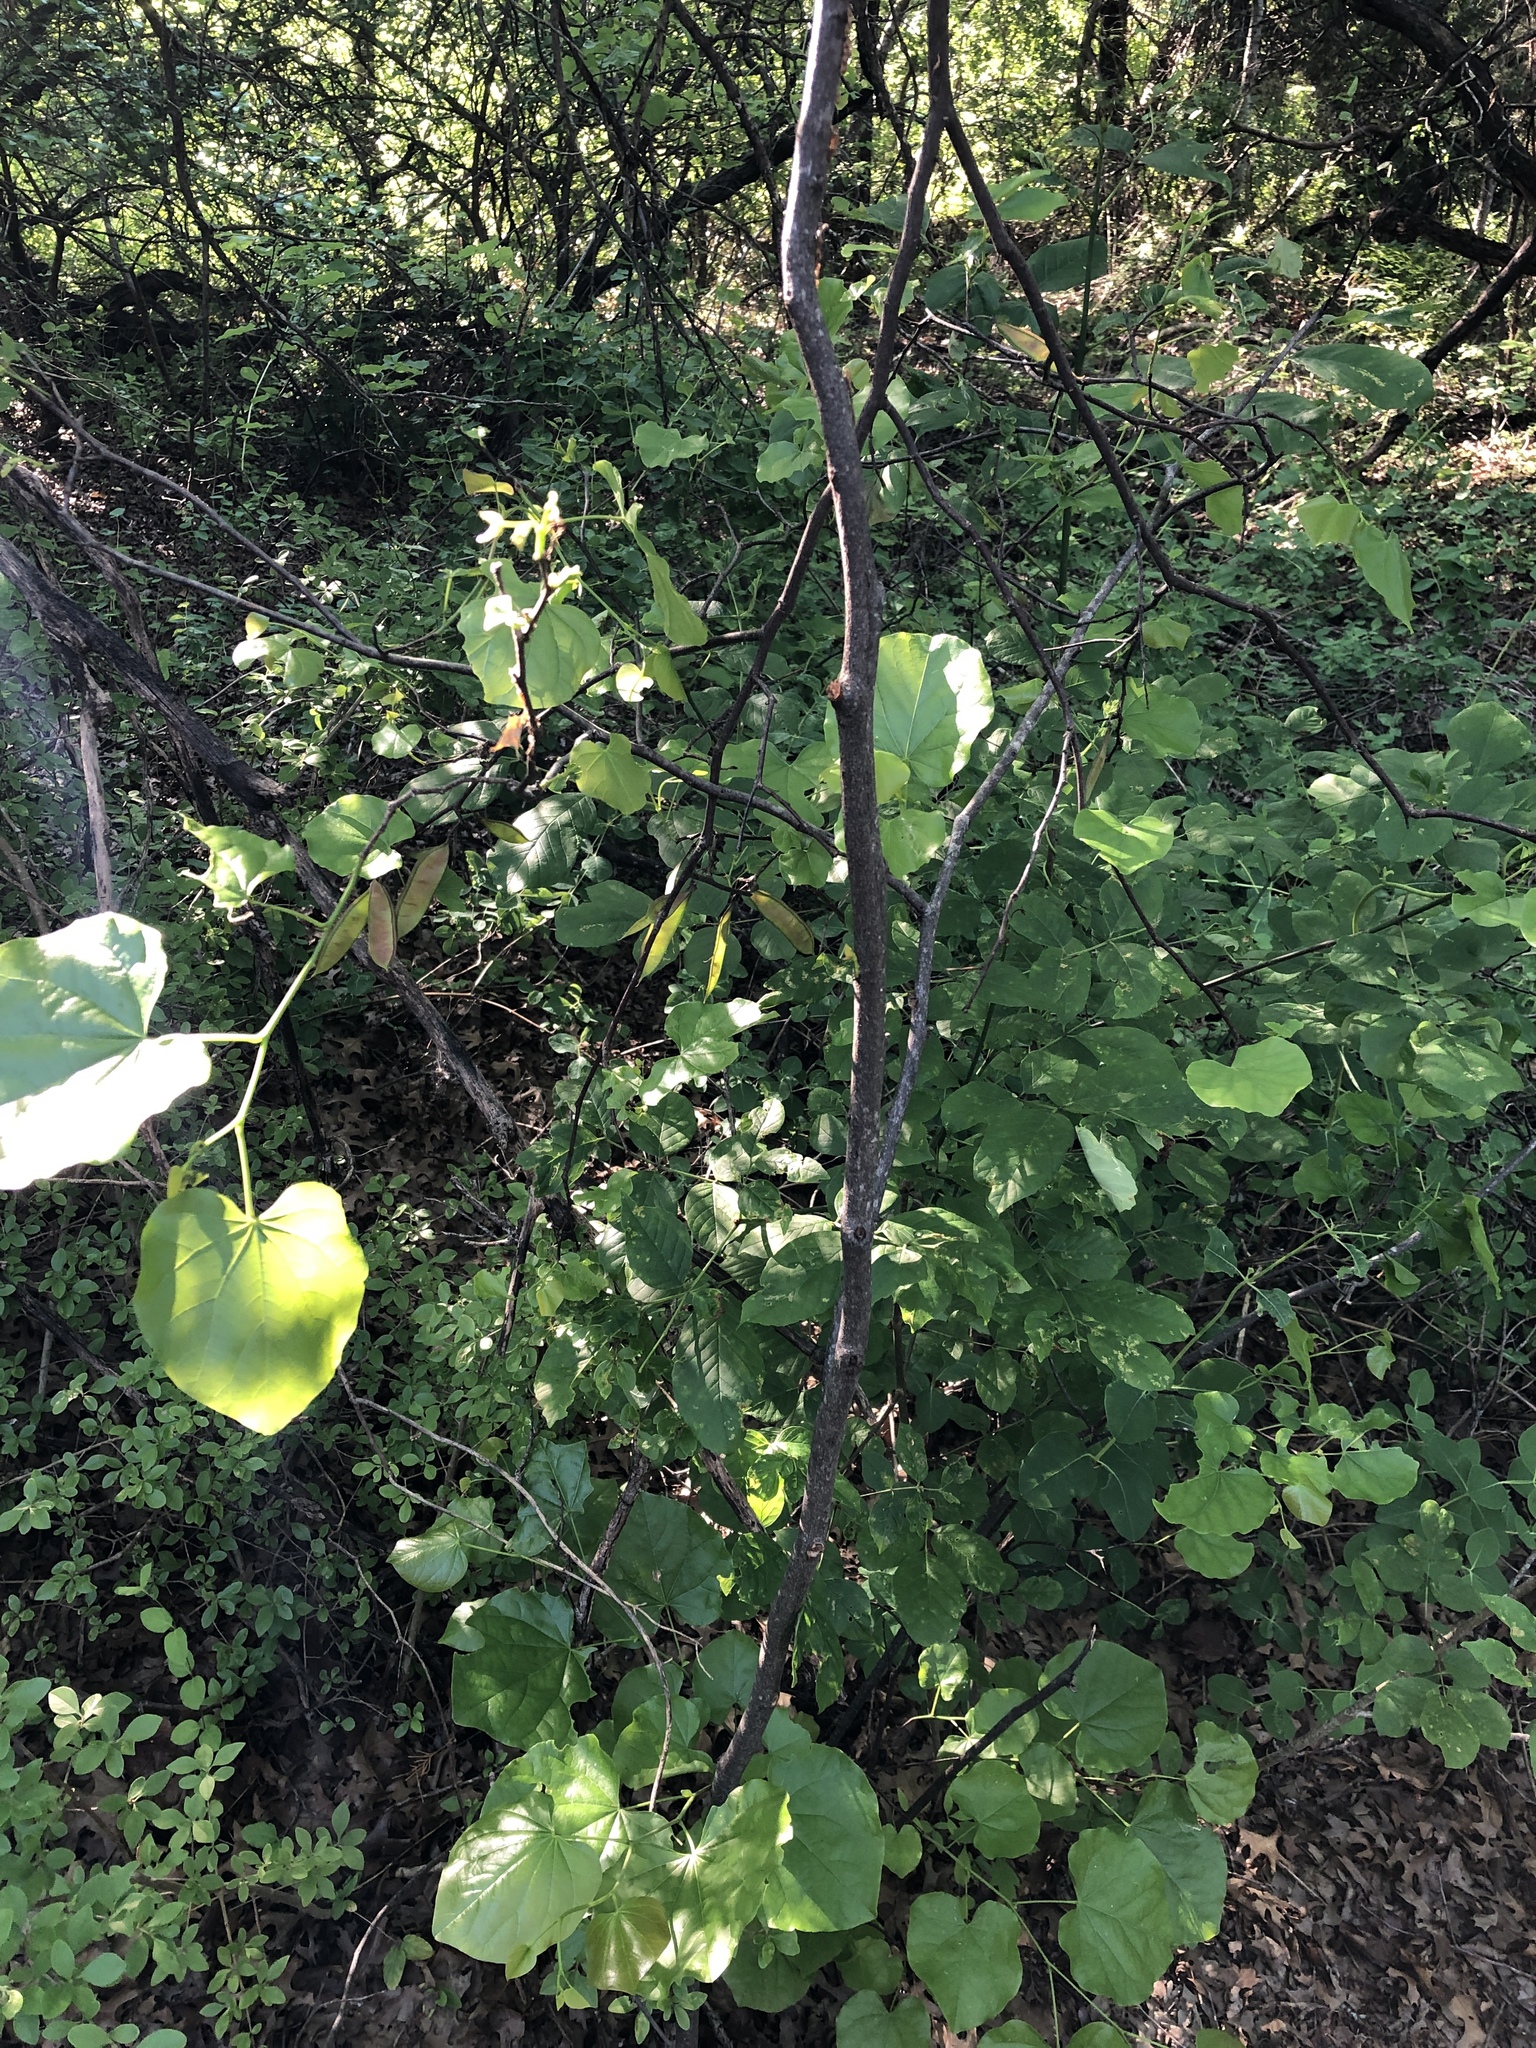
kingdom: Plantae
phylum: Tracheophyta
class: Magnoliopsida
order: Fabales
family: Fabaceae
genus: Cercis
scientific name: Cercis canadensis
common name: Eastern redbud
